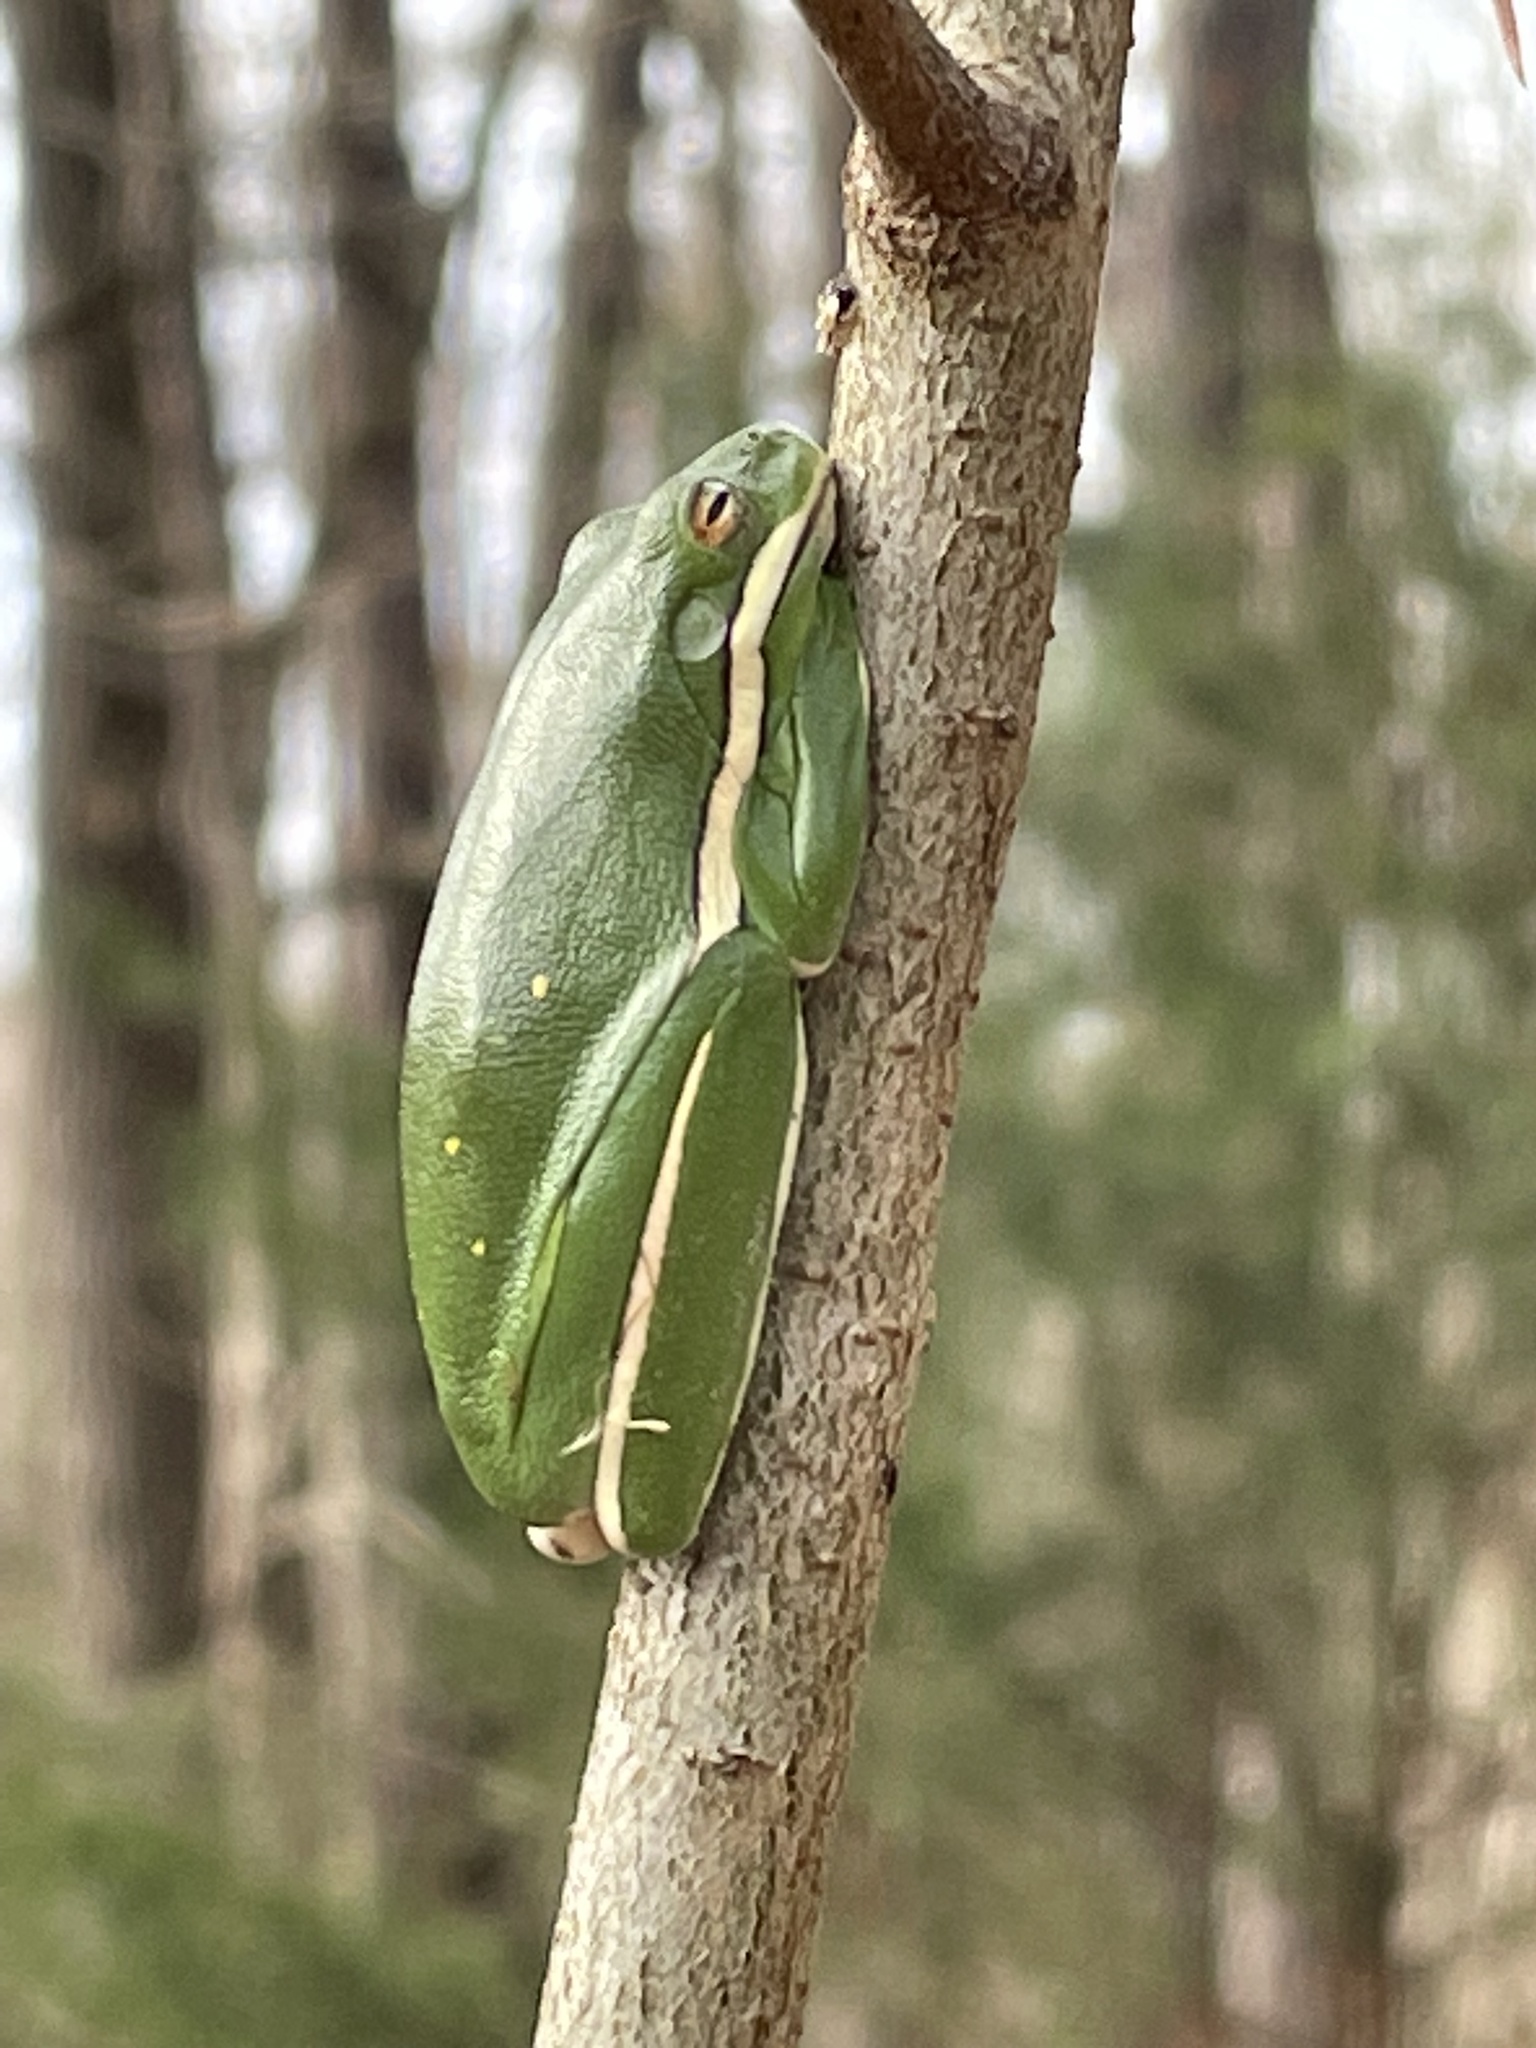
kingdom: Animalia
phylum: Chordata
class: Amphibia
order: Anura
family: Hylidae
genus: Dryophytes
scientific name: Dryophytes cinereus
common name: Green treefrog
